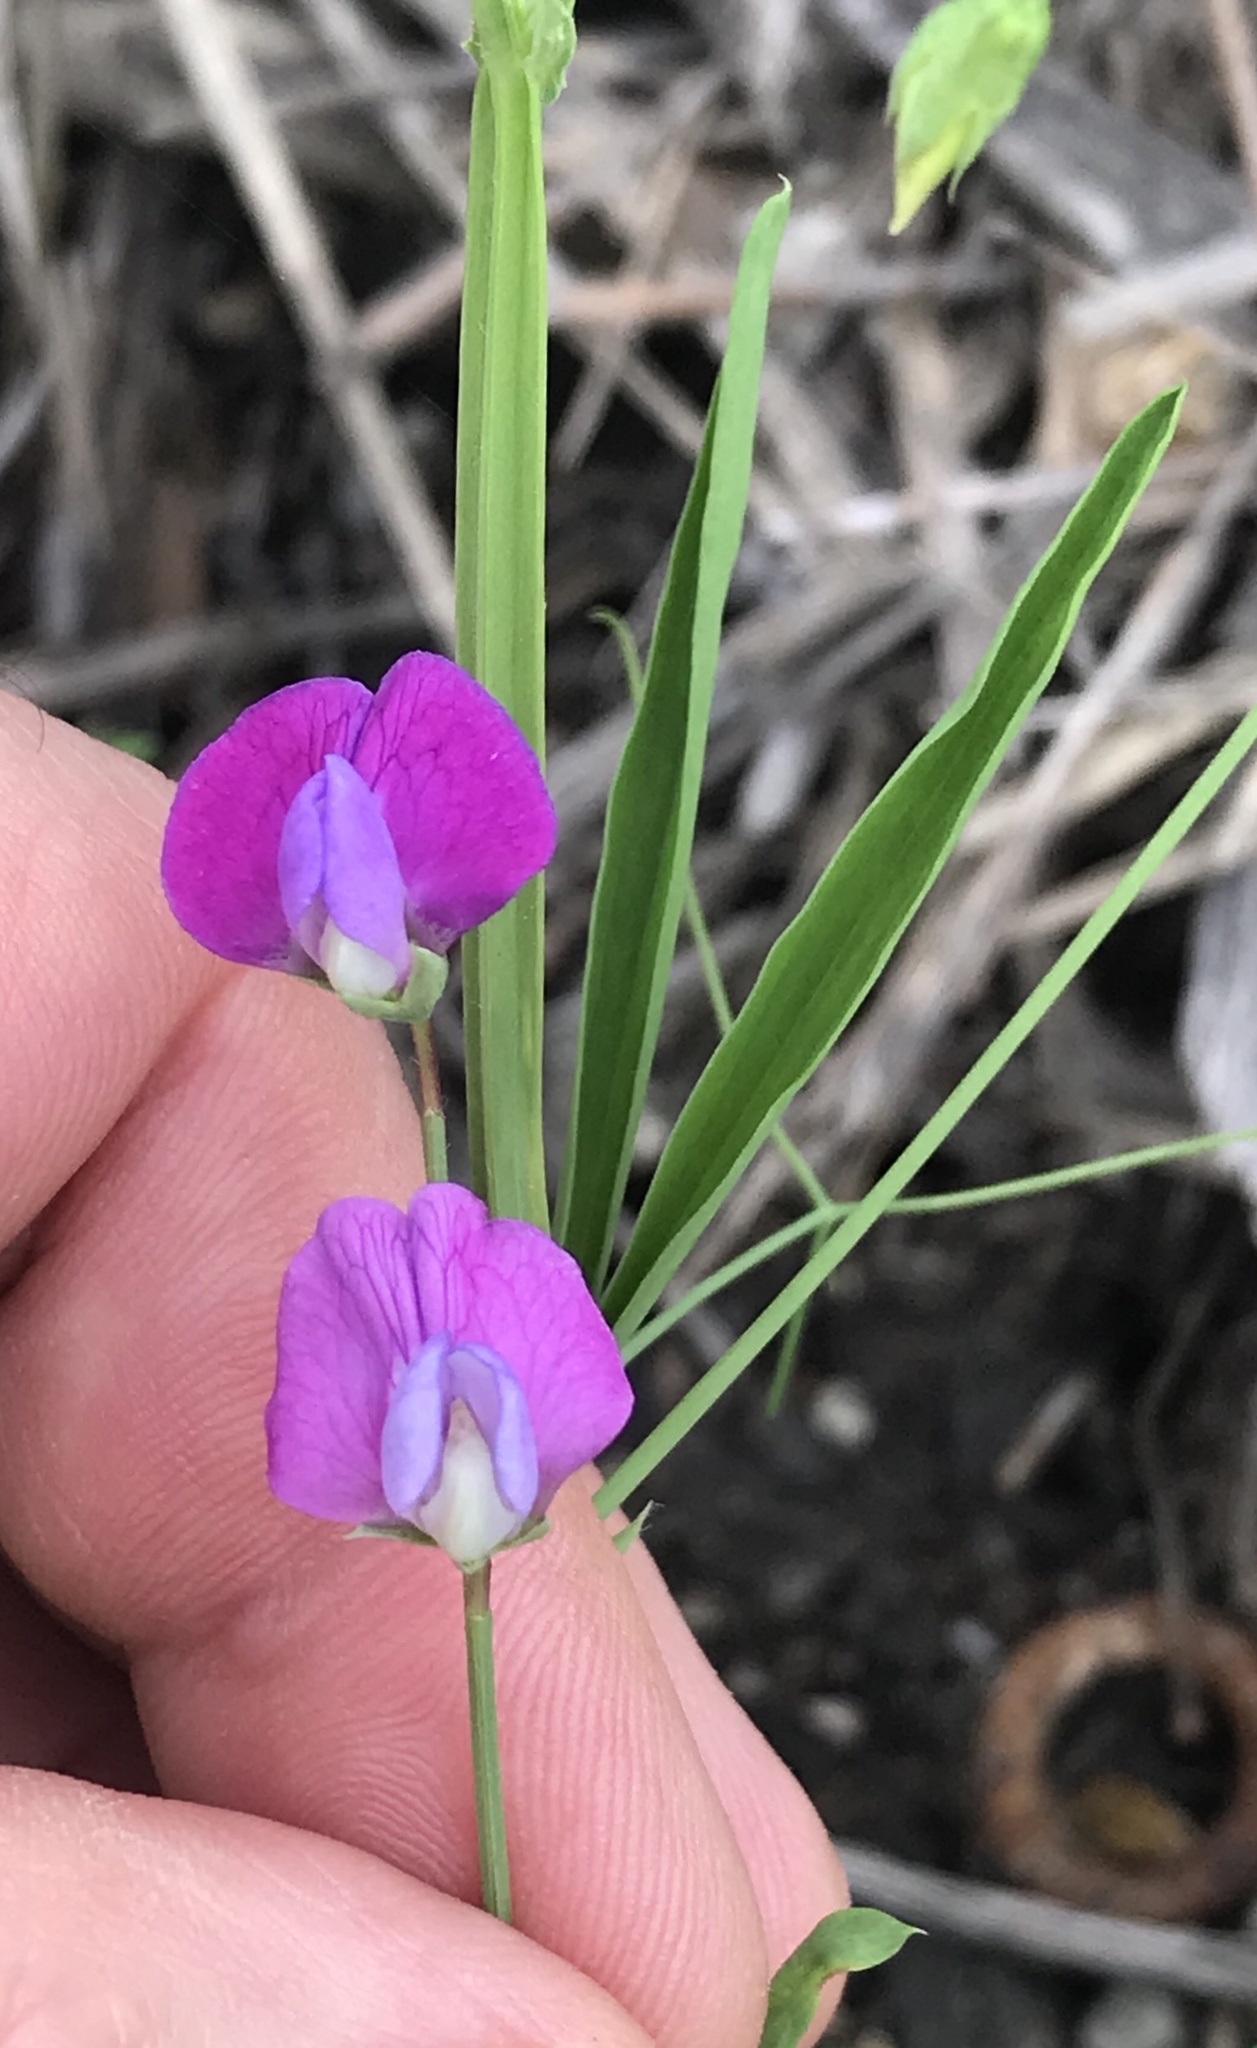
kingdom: Plantae
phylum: Tracheophyta
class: Magnoliopsida
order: Fabales
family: Fabaceae
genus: Lathyrus
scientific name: Lathyrus hirsutus
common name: Hairy vetchling
